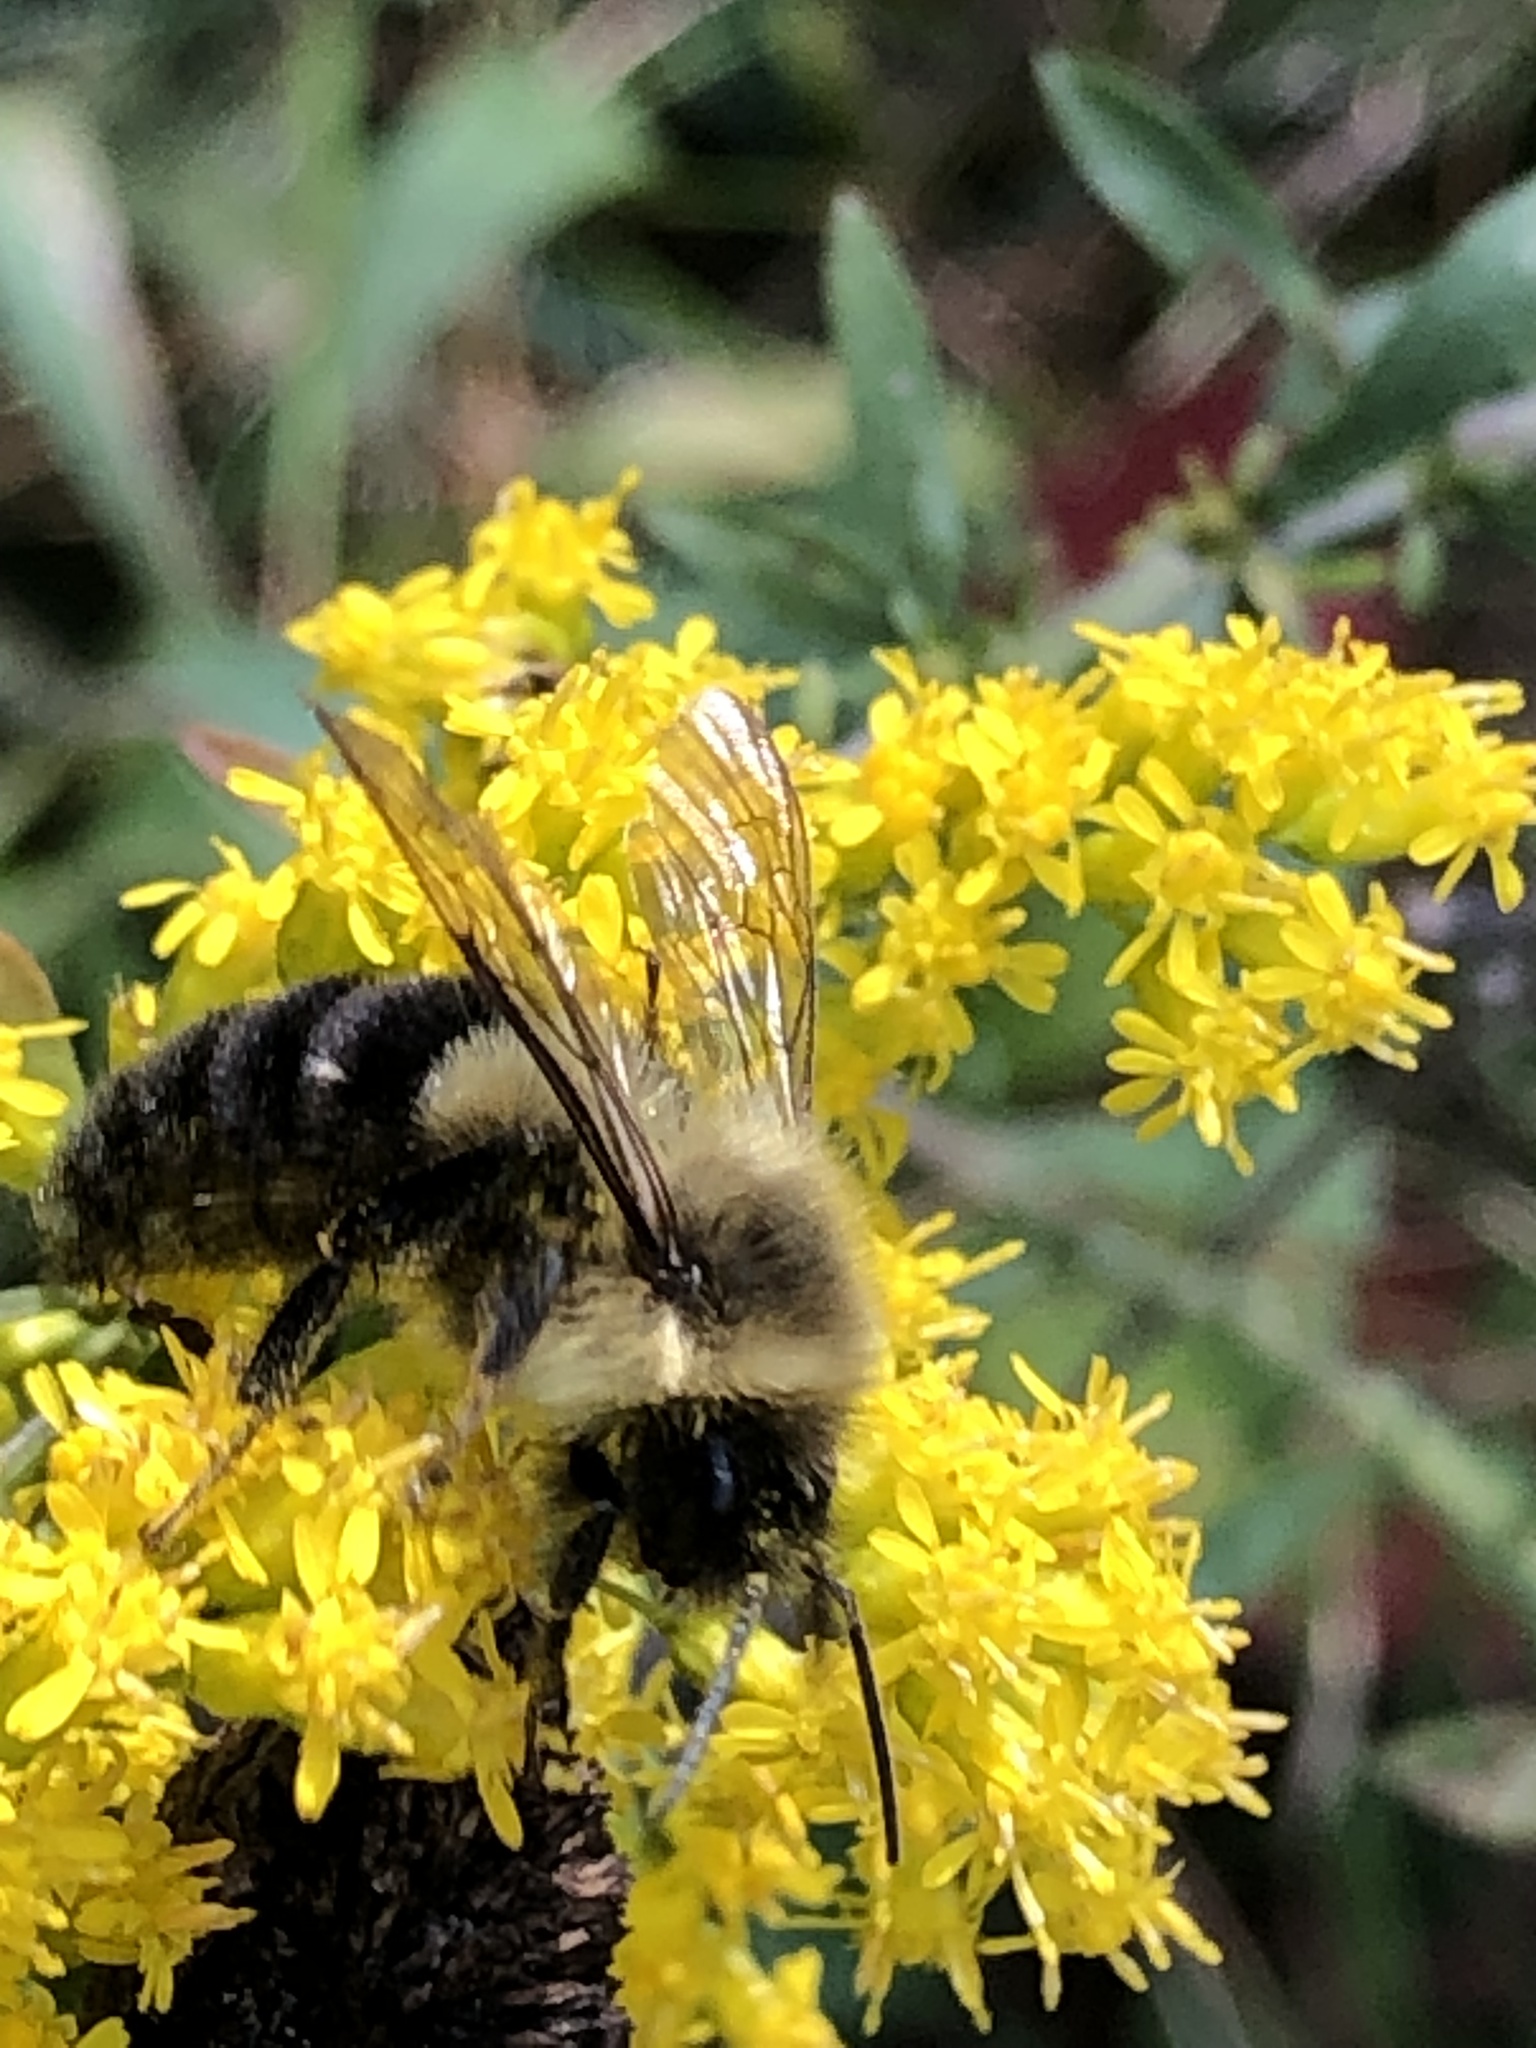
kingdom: Animalia
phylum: Arthropoda
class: Insecta
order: Hymenoptera
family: Apidae
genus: Bombus
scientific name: Bombus impatiens
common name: Common eastern bumble bee
